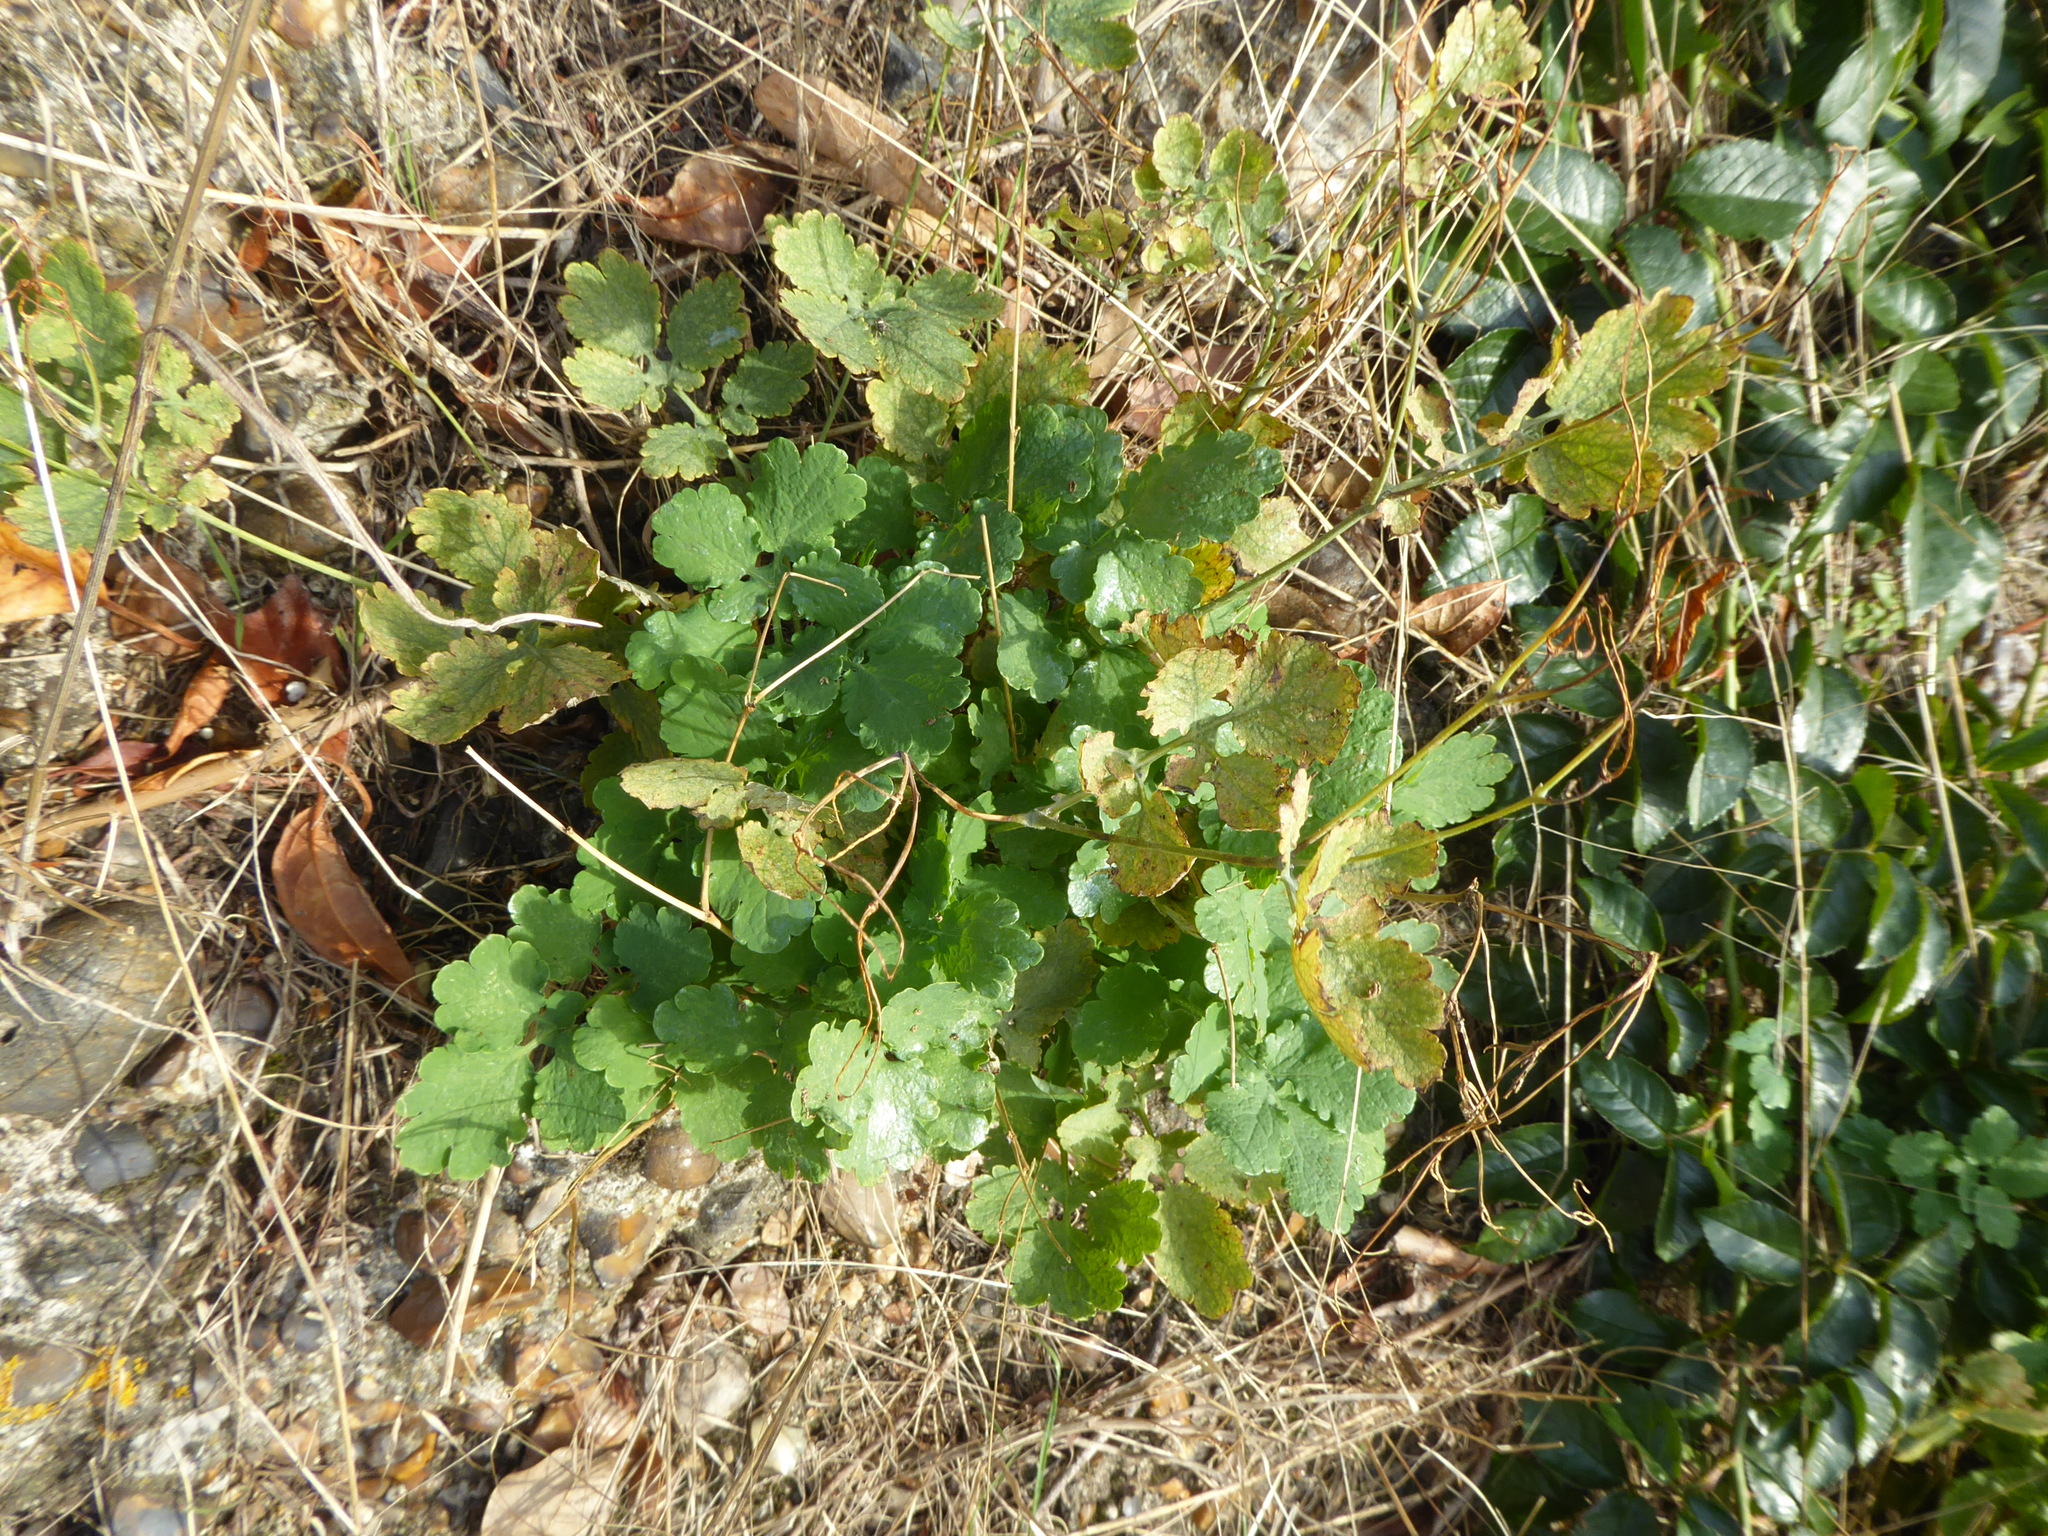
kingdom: Plantae
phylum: Tracheophyta
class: Magnoliopsida
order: Ranunculales
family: Papaveraceae
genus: Chelidonium
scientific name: Chelidonium majus
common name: Greater celandine
